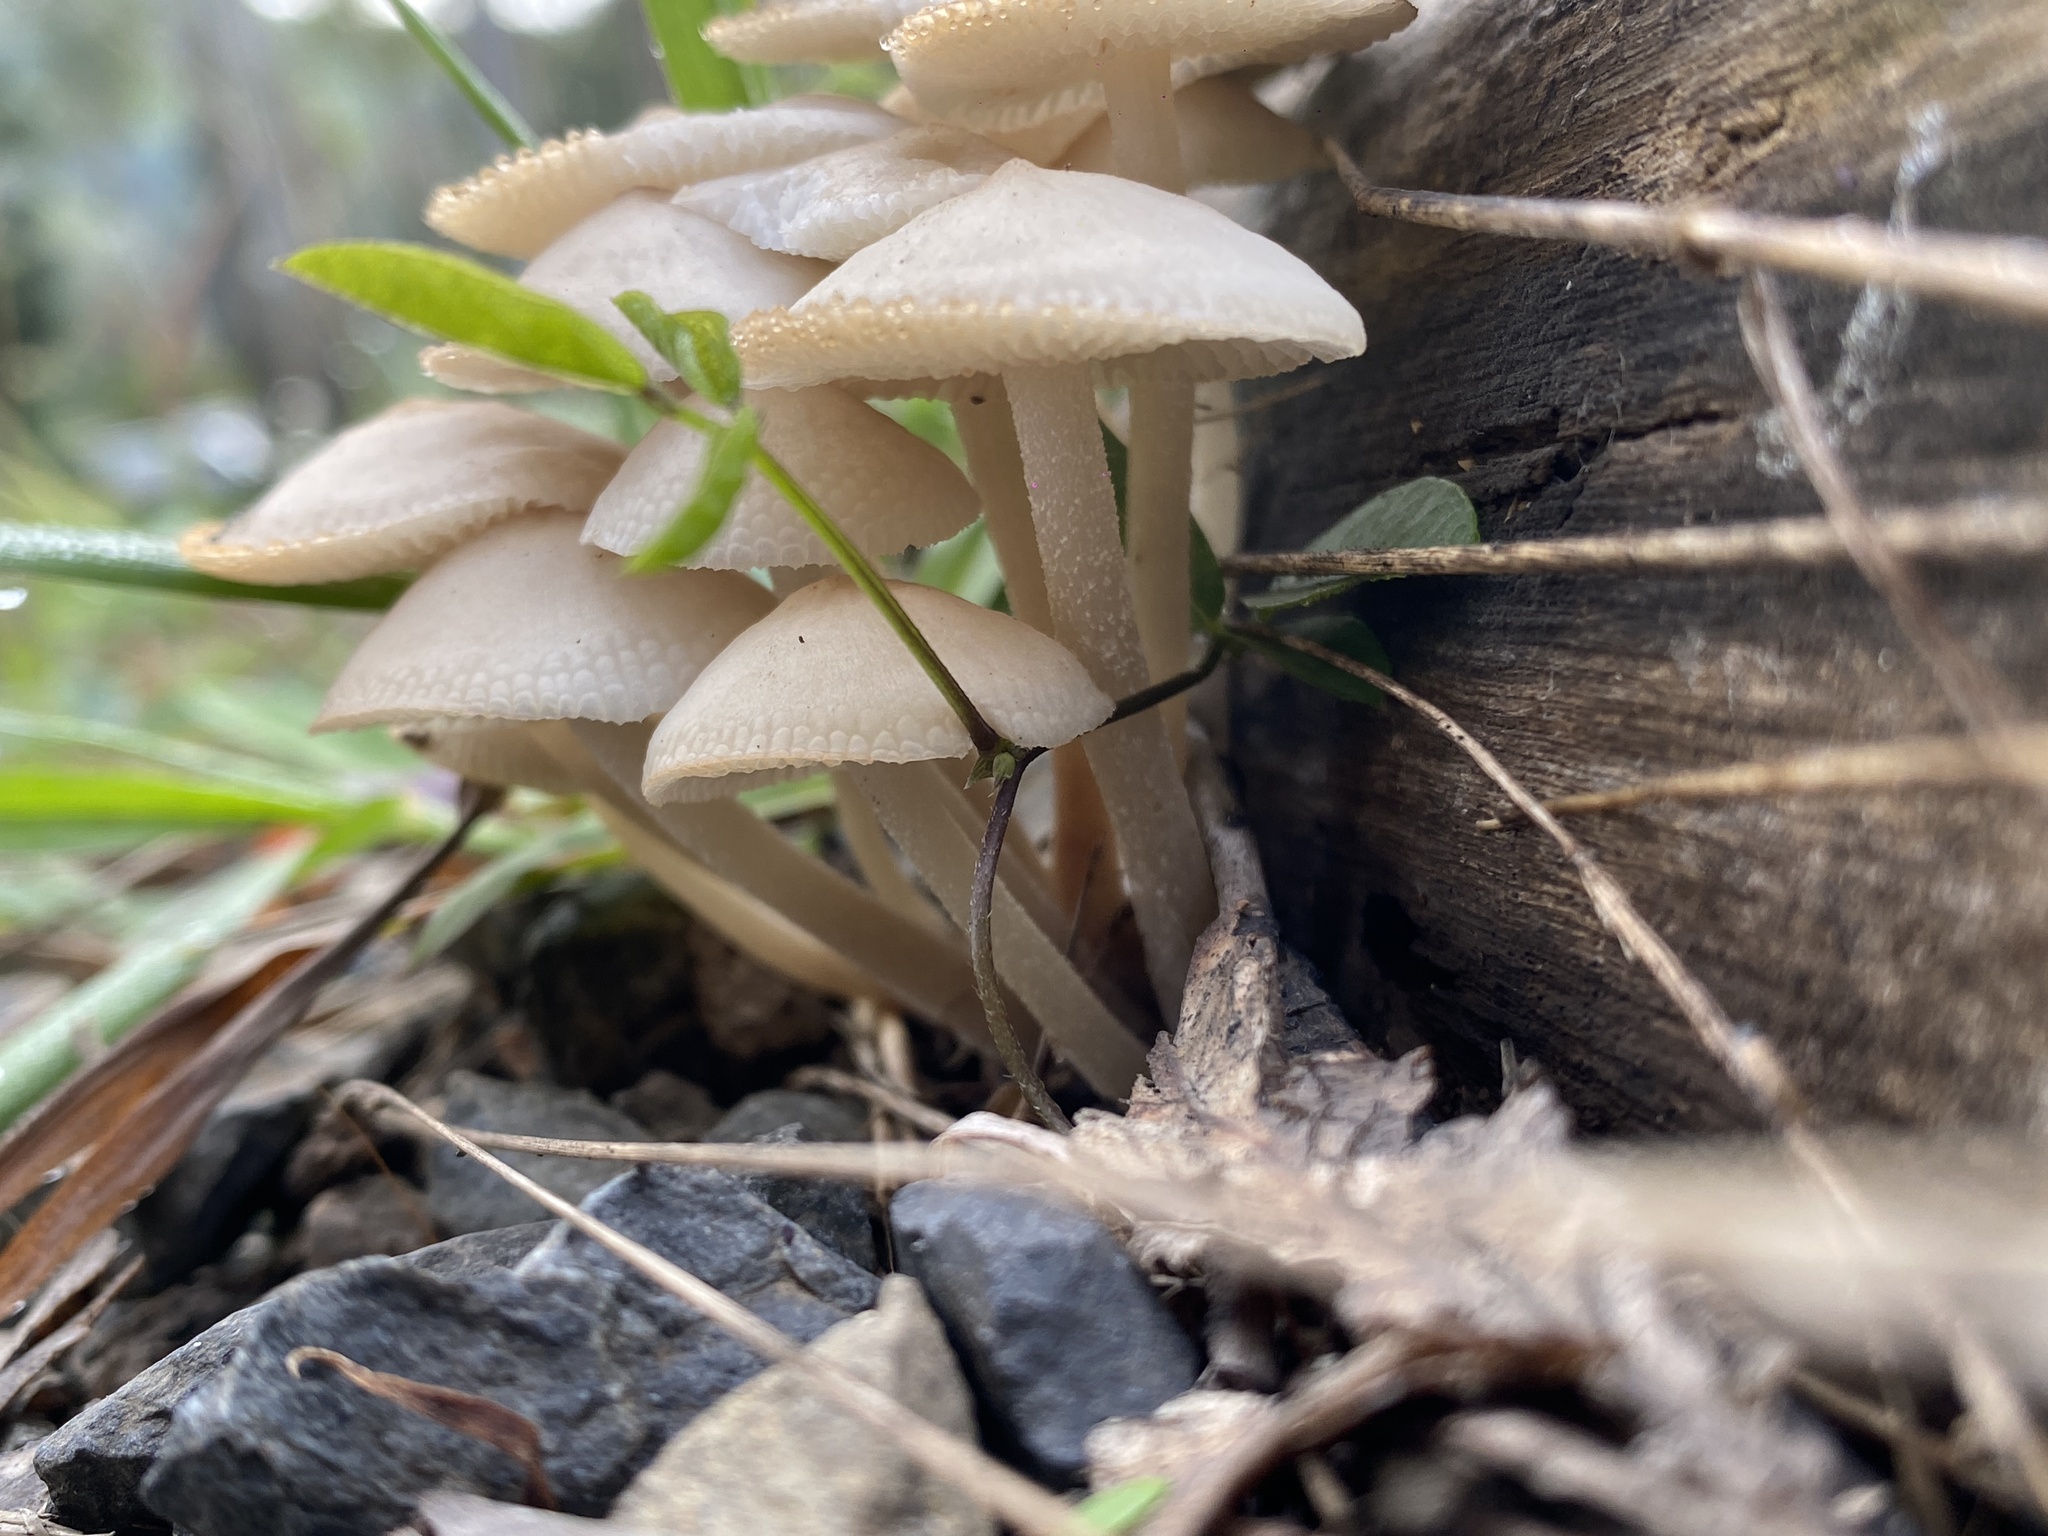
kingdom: Fungi
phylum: Basidiomycota
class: Agaricomycetes
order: Agaricales
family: Mycenaceae
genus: Filoboletus
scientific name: Filoboletus manipularis
